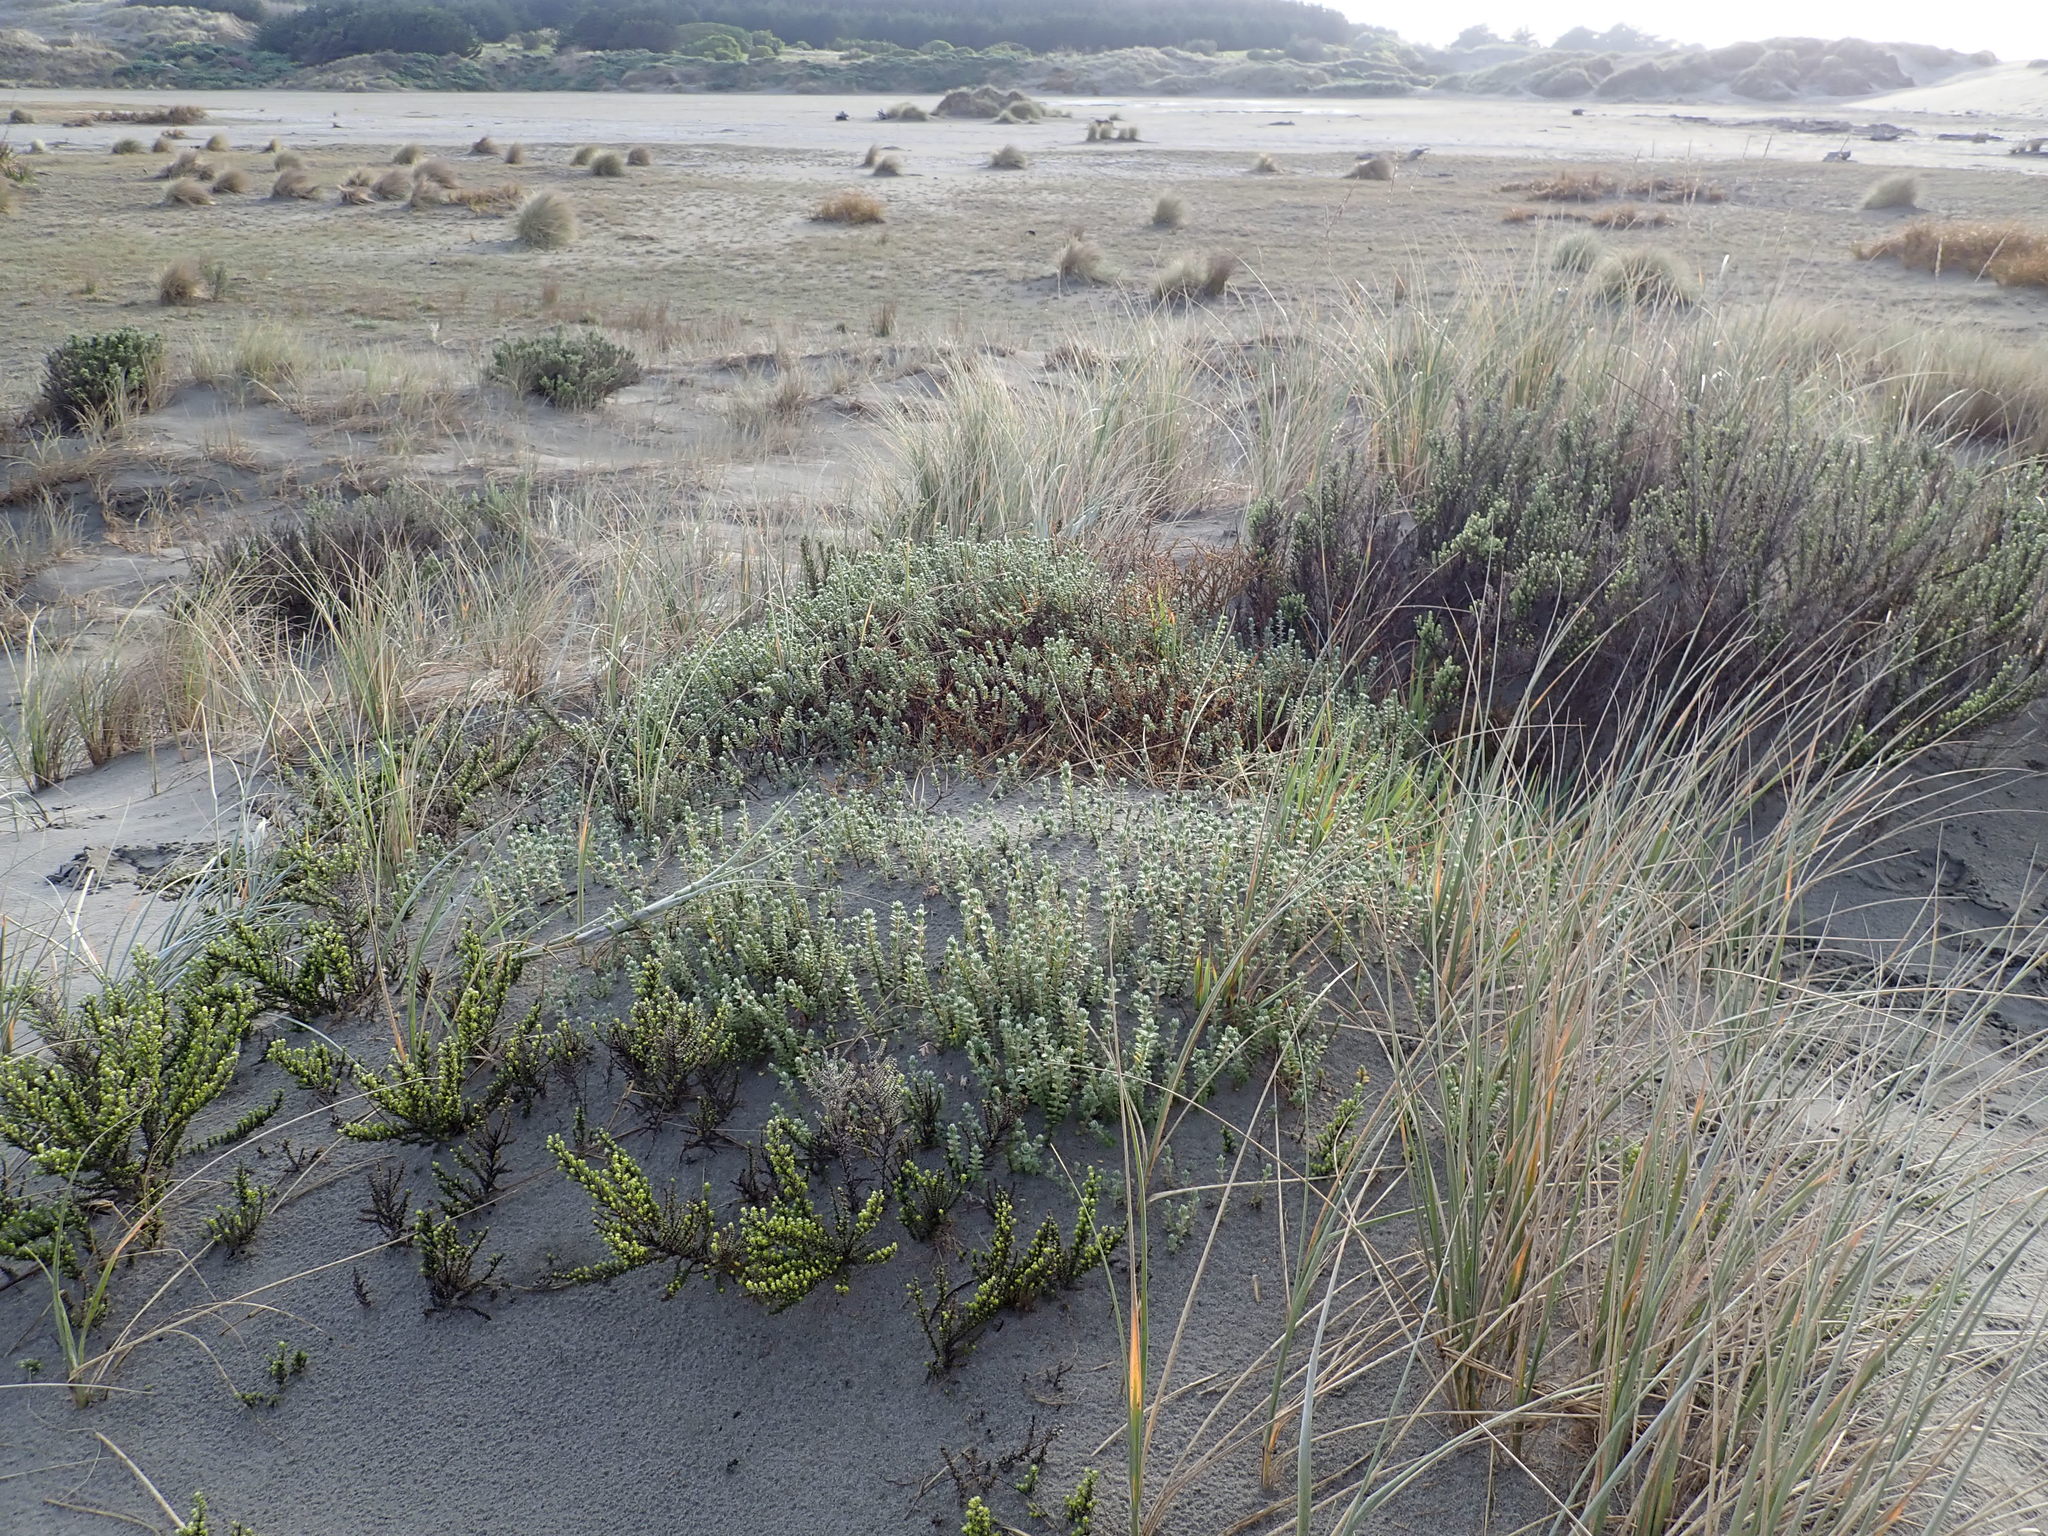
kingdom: Plantae
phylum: Tracheophyta
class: Magnoliopsida
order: Malvales
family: Thymelaeaceae
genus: Pimelea
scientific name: Pimelea villosa
